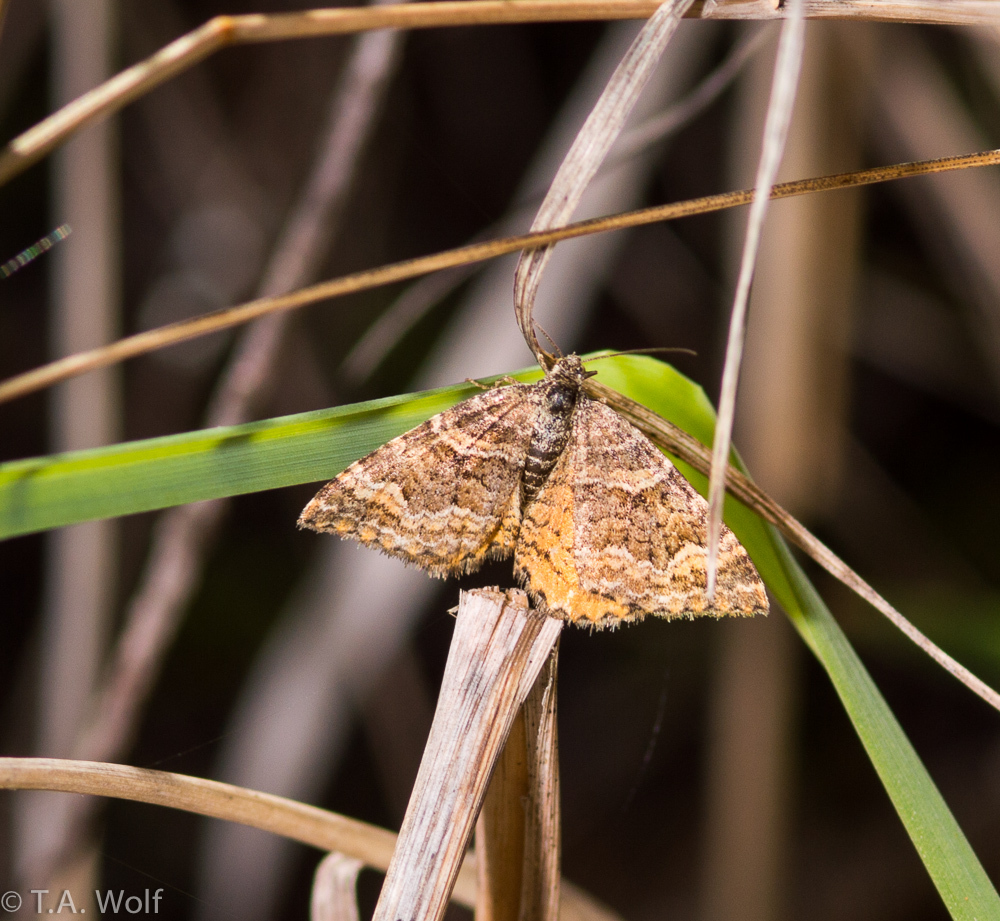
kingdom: Animalia
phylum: Arthropoda
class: Insecta
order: Lepidoptera
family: Geometridae
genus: Epirrhoe
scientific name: Epirrhoe plebeculata
